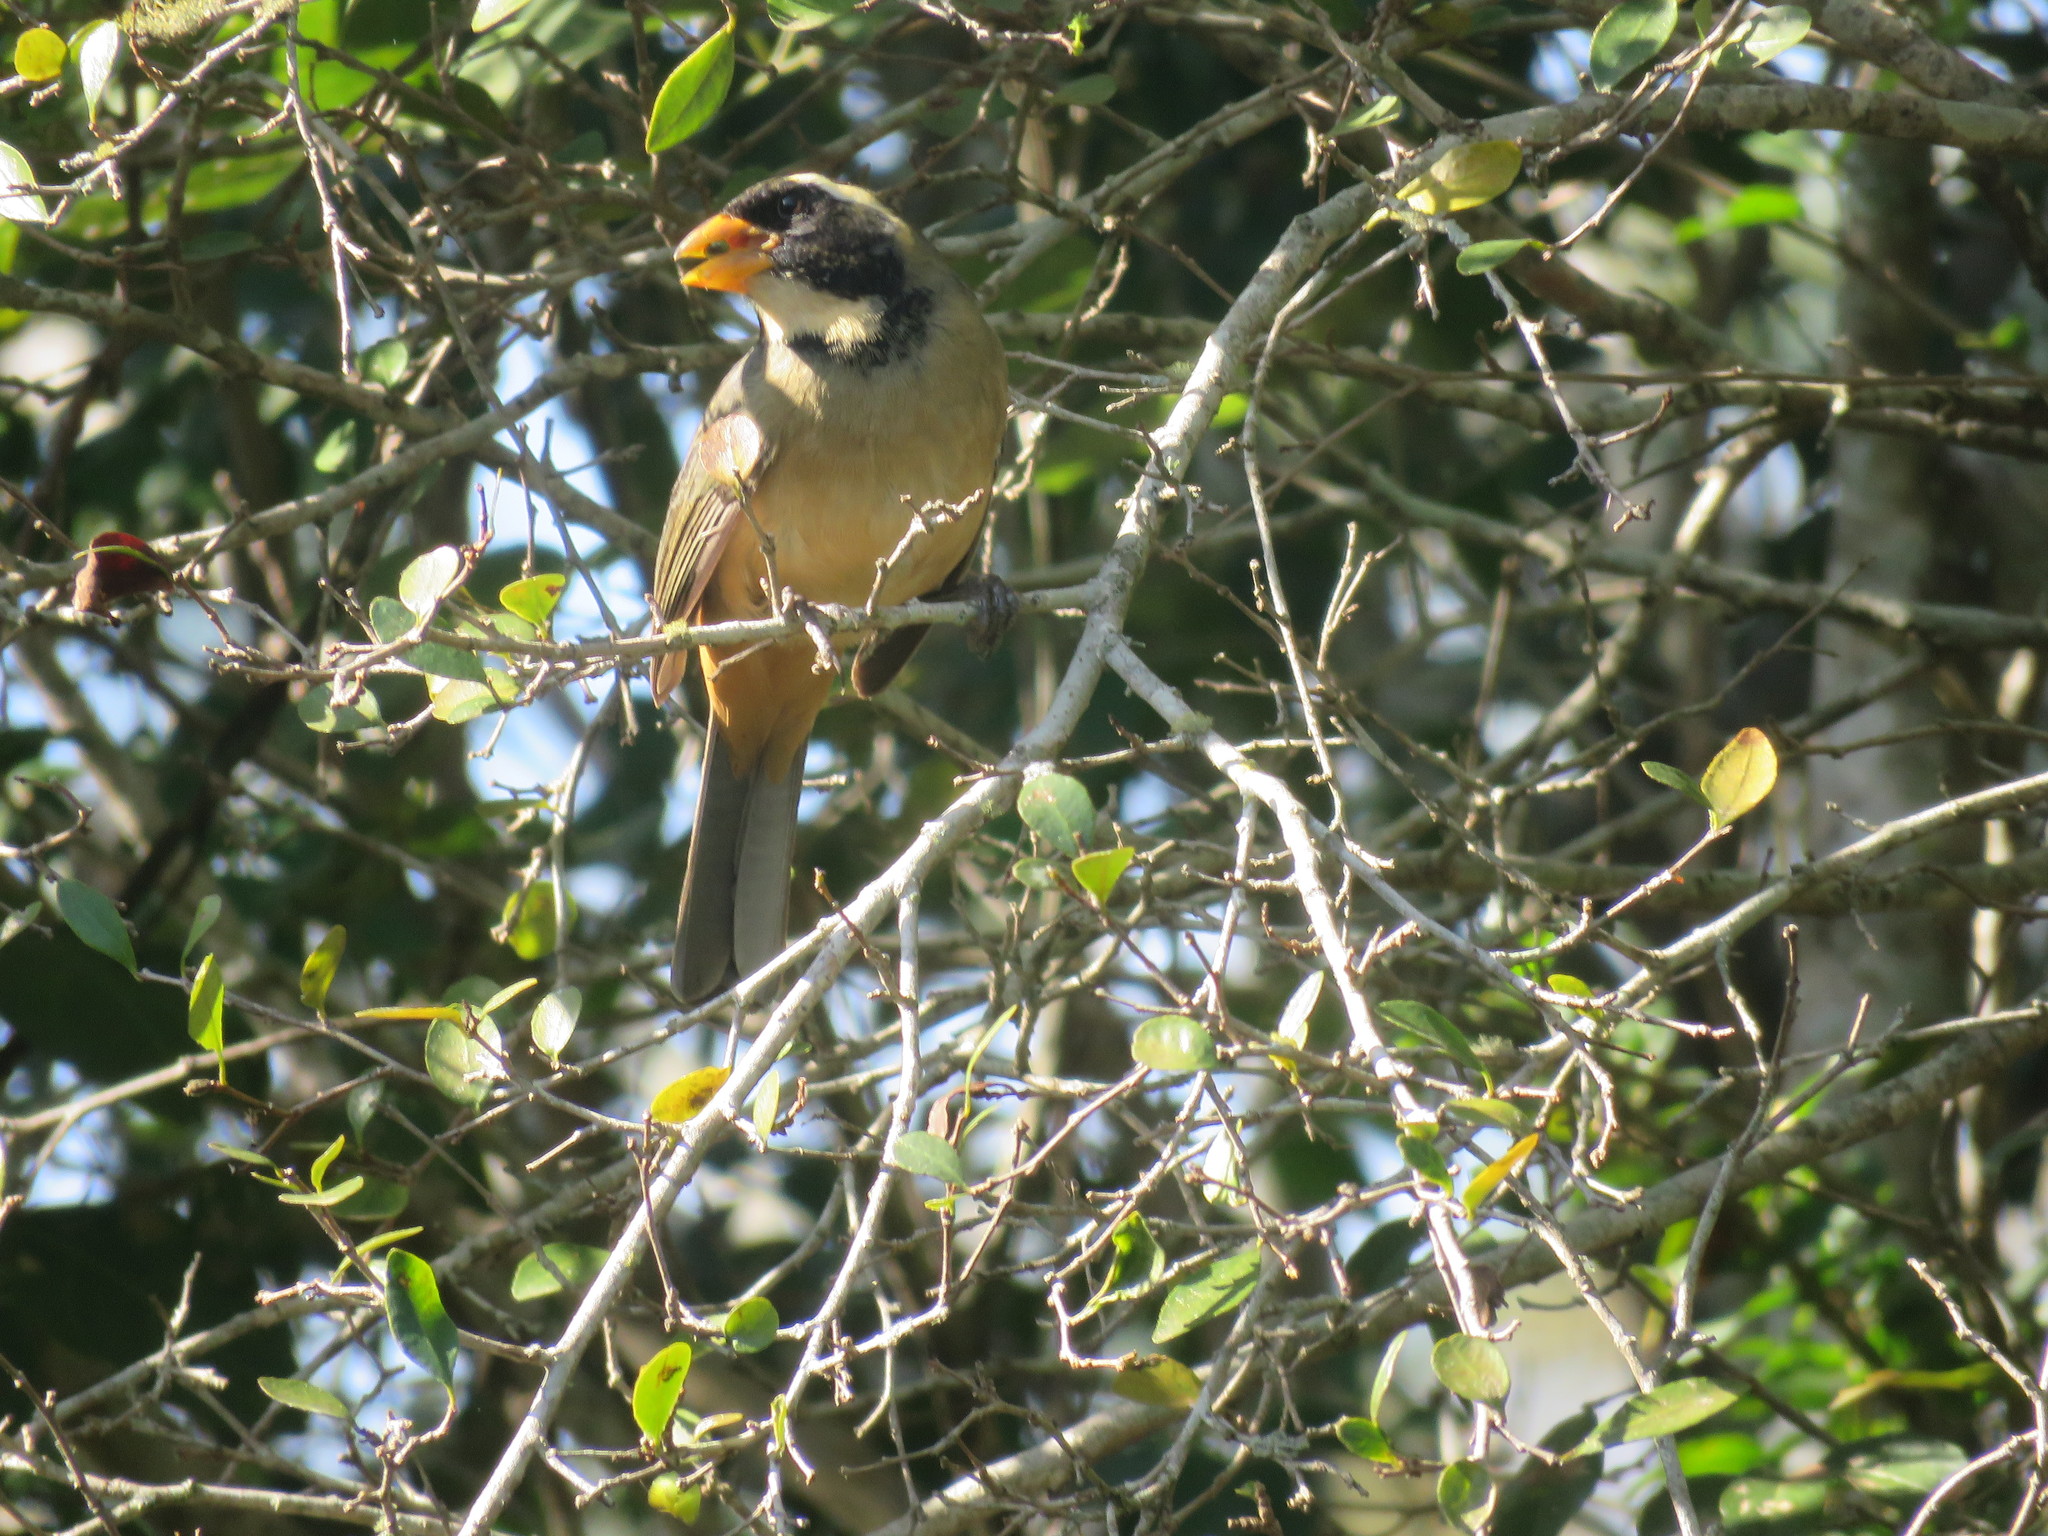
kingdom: Animalia
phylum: Chordata
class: Aves
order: Passeriformes
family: Thraupidae
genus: Saltator
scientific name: Saltator aurantiirostris
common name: Golden-billed saltator
